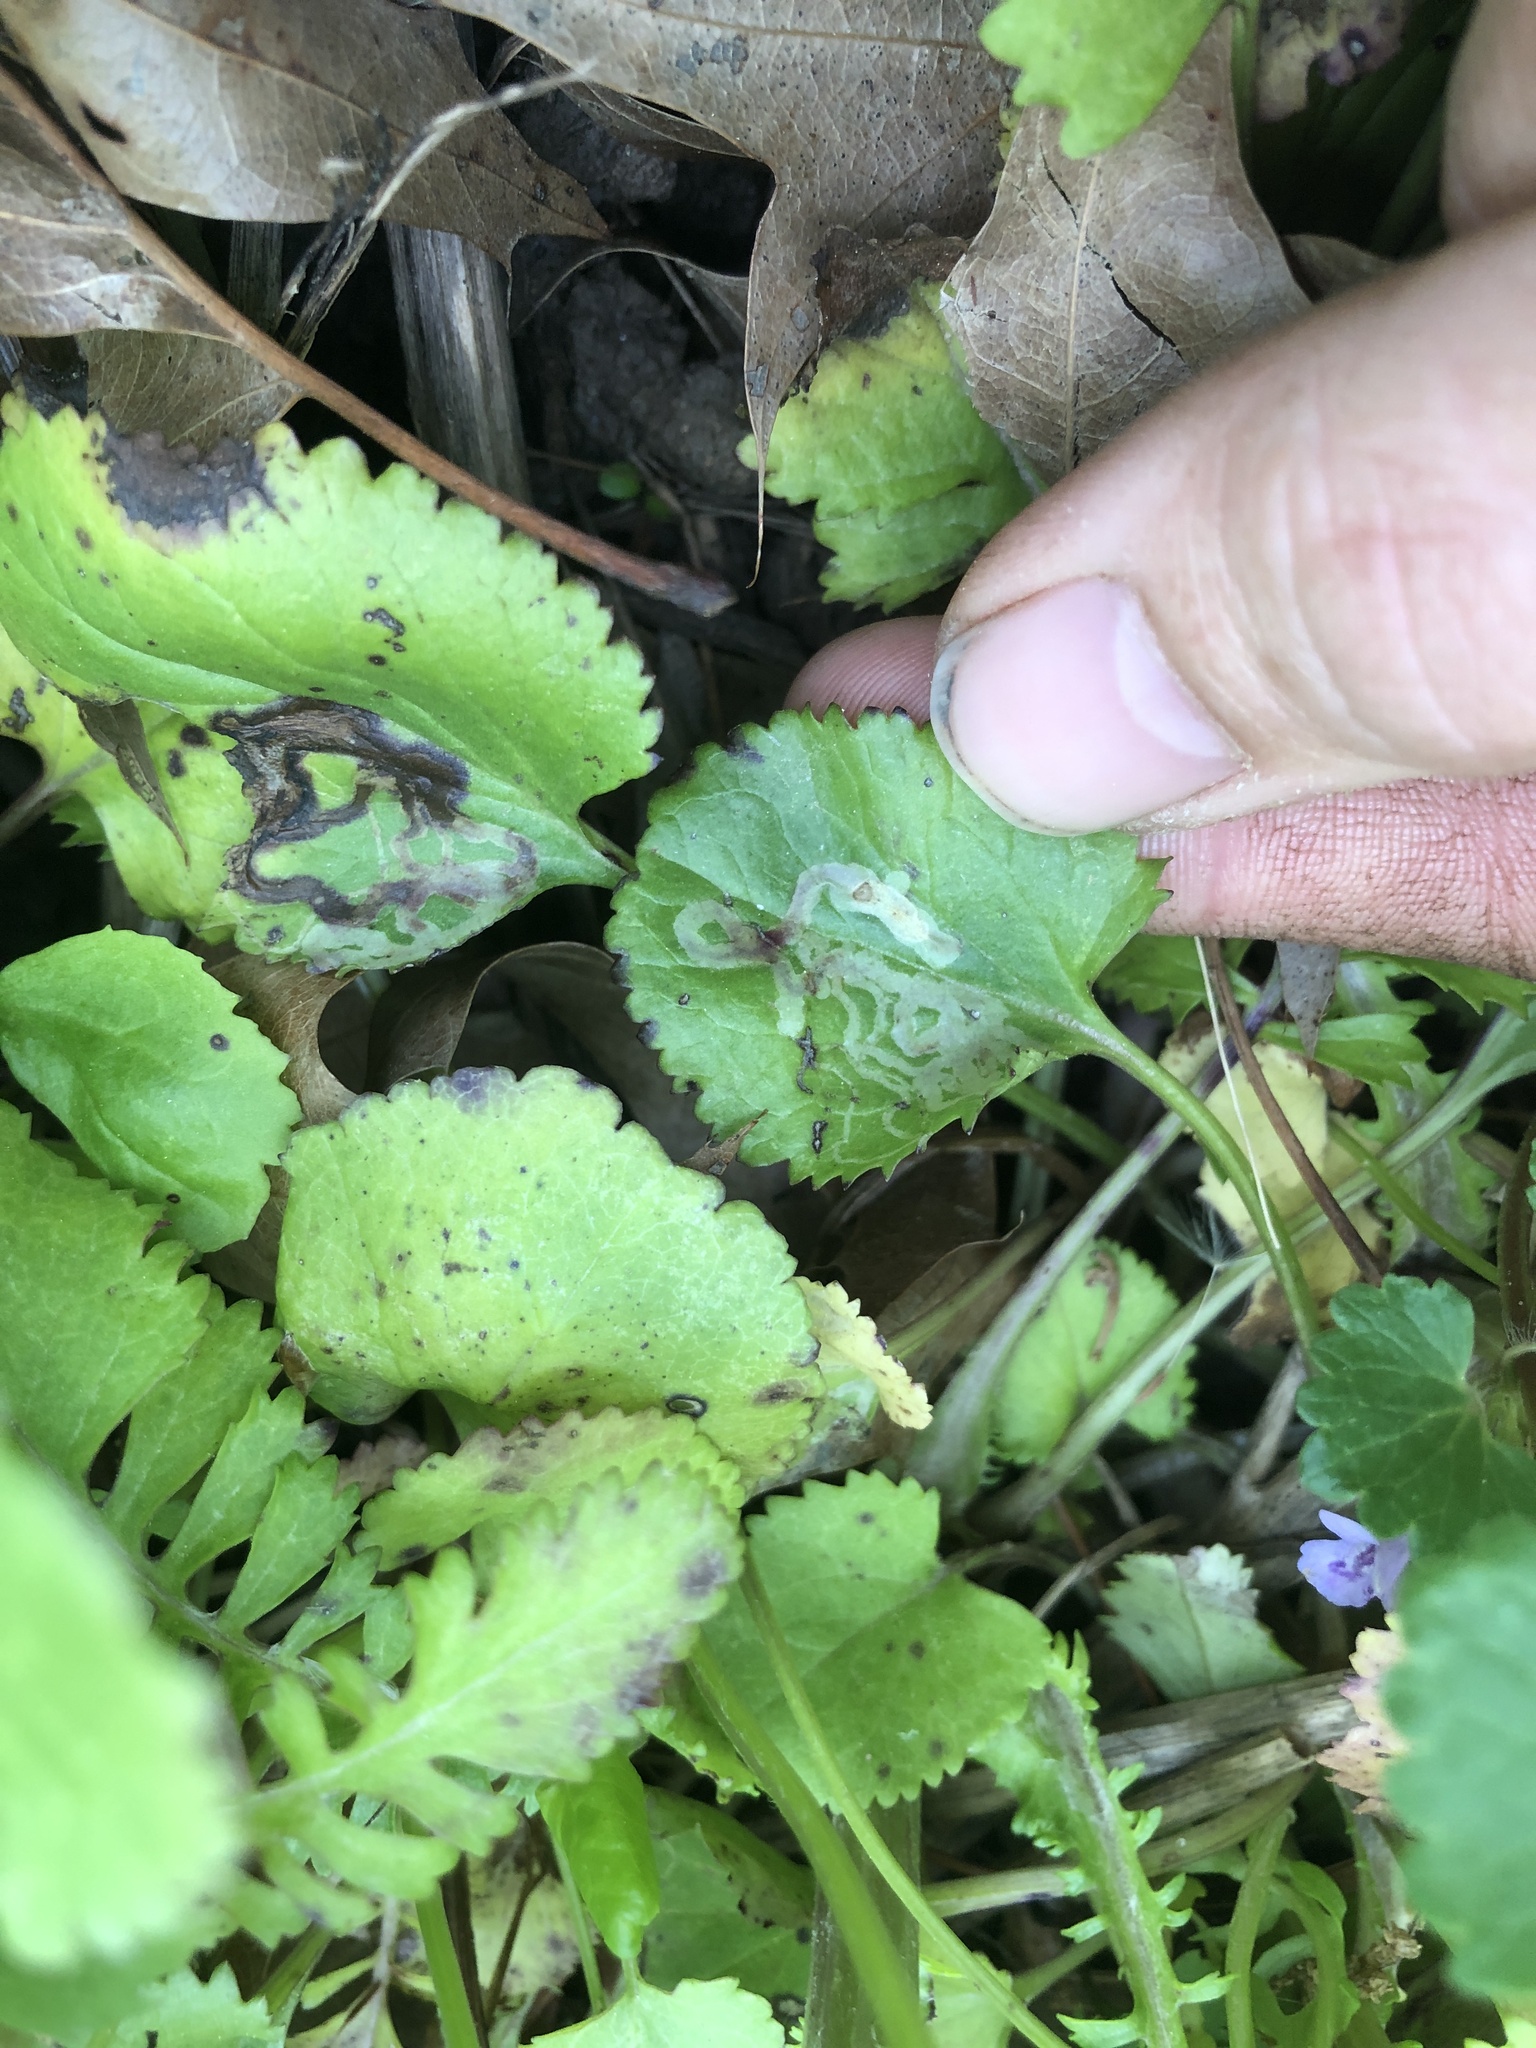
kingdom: Animalia
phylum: Arthropoda
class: Insecta
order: Lepidoptera
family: Gracillariidae
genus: Phyllocnistis
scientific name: Phyllocnistis insignis
